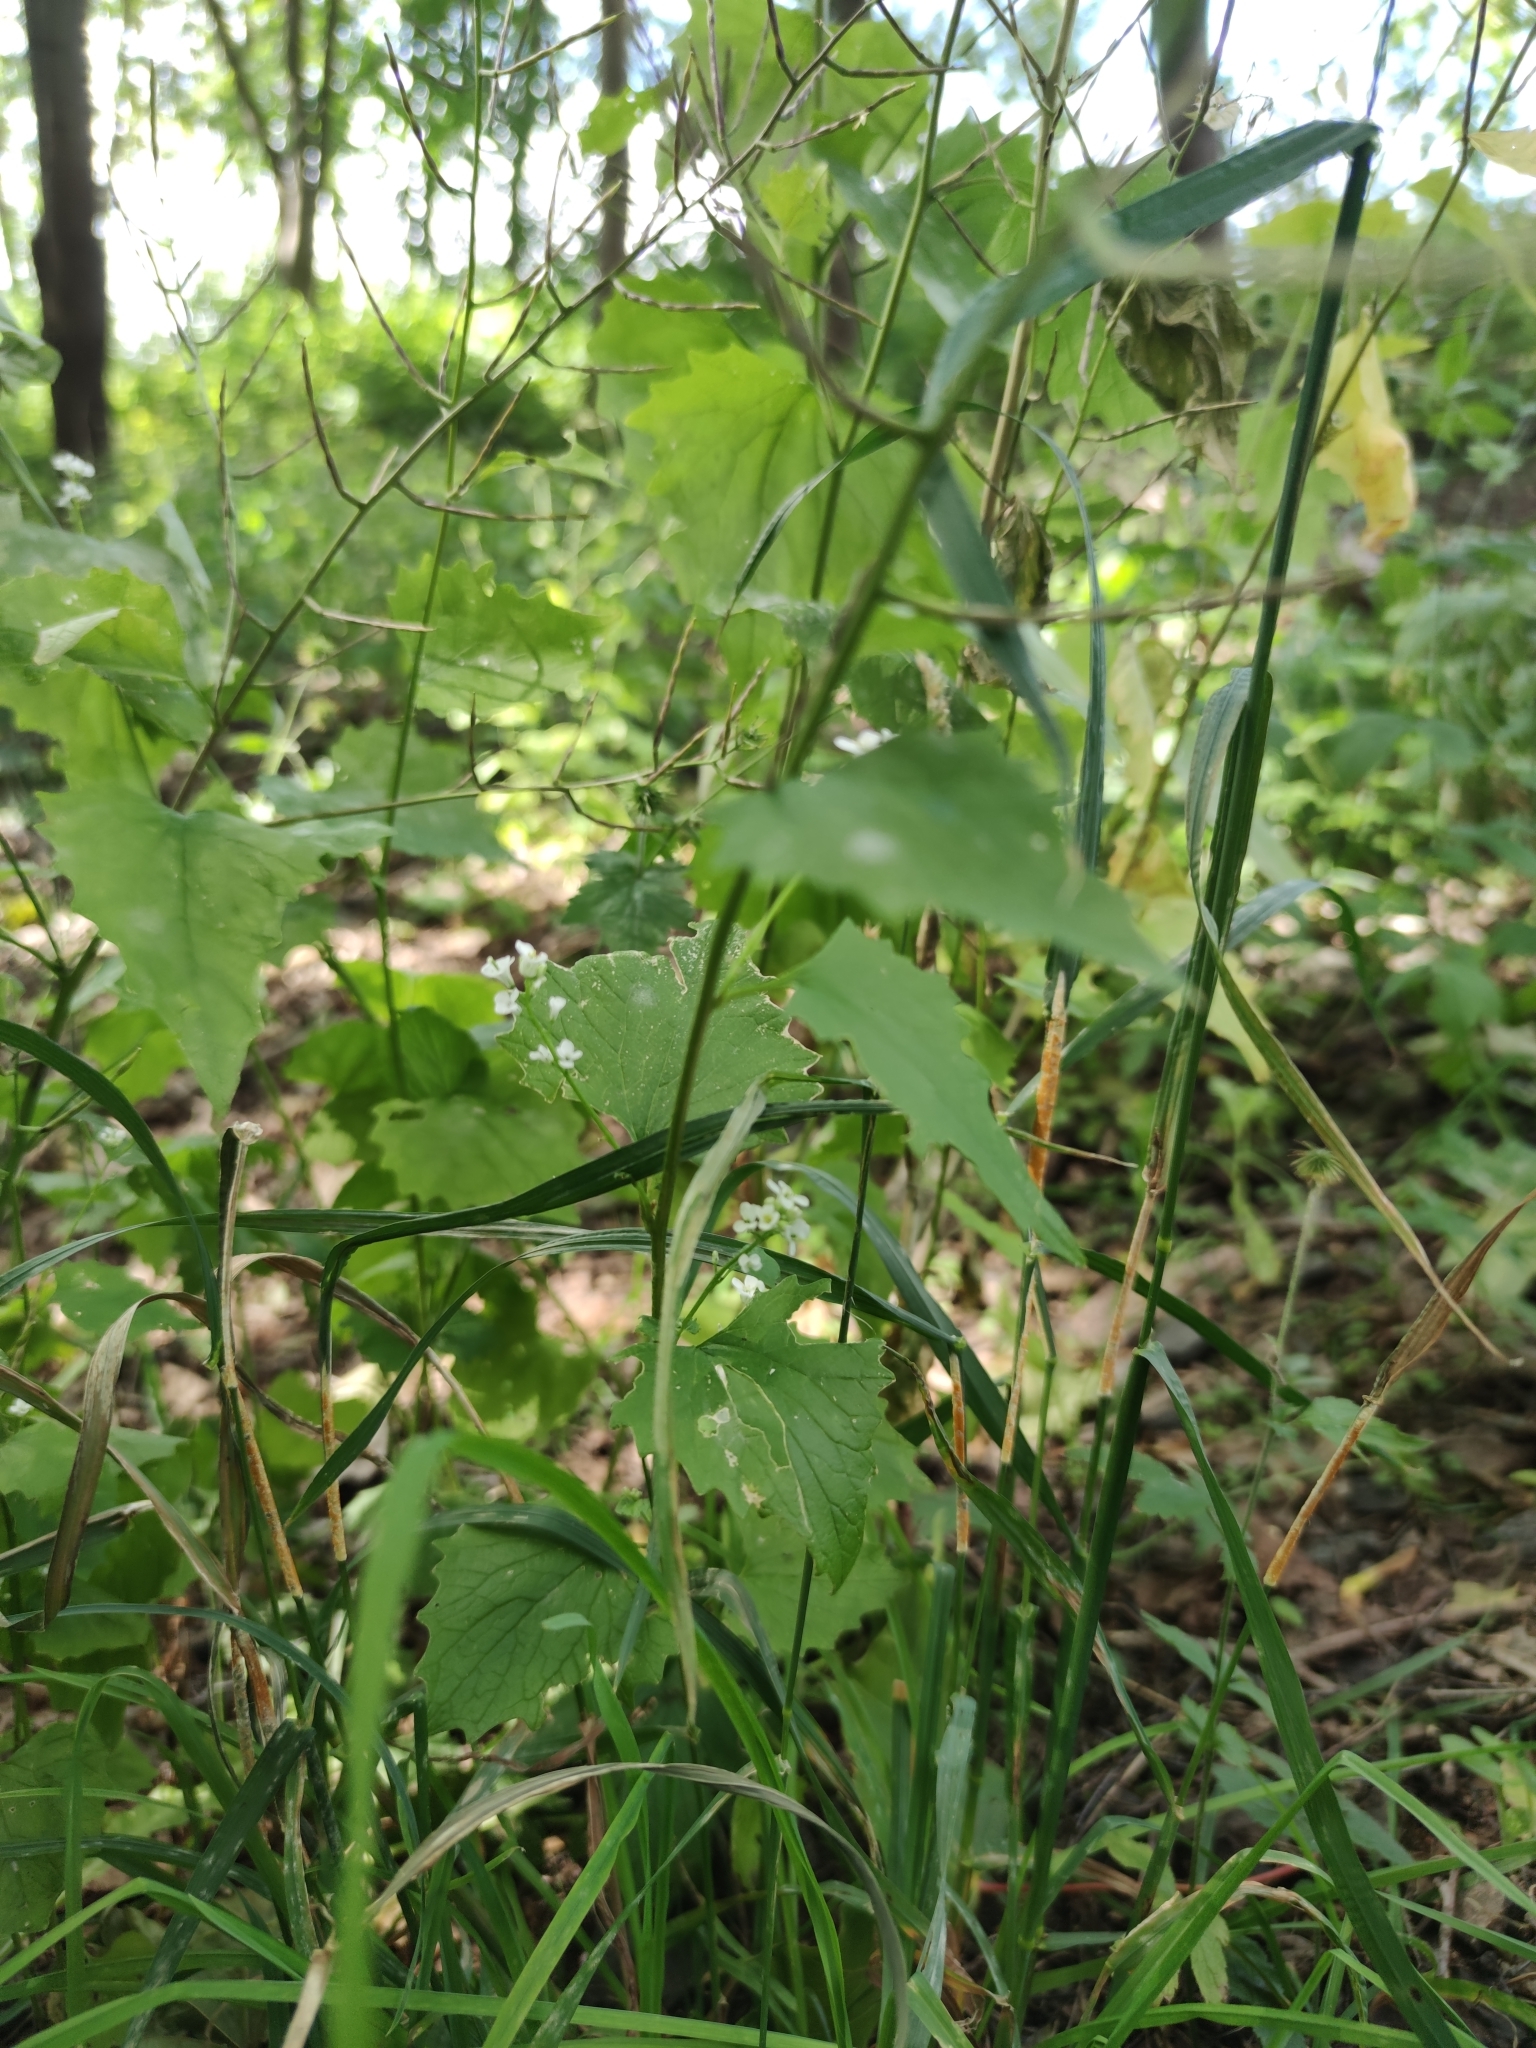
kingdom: Plantae
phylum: Tracheophyta
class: Magnoliopsida
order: Brassicales
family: Brassicaceae
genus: Alliaria
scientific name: Alliaria petiolata
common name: Garlic mustard
